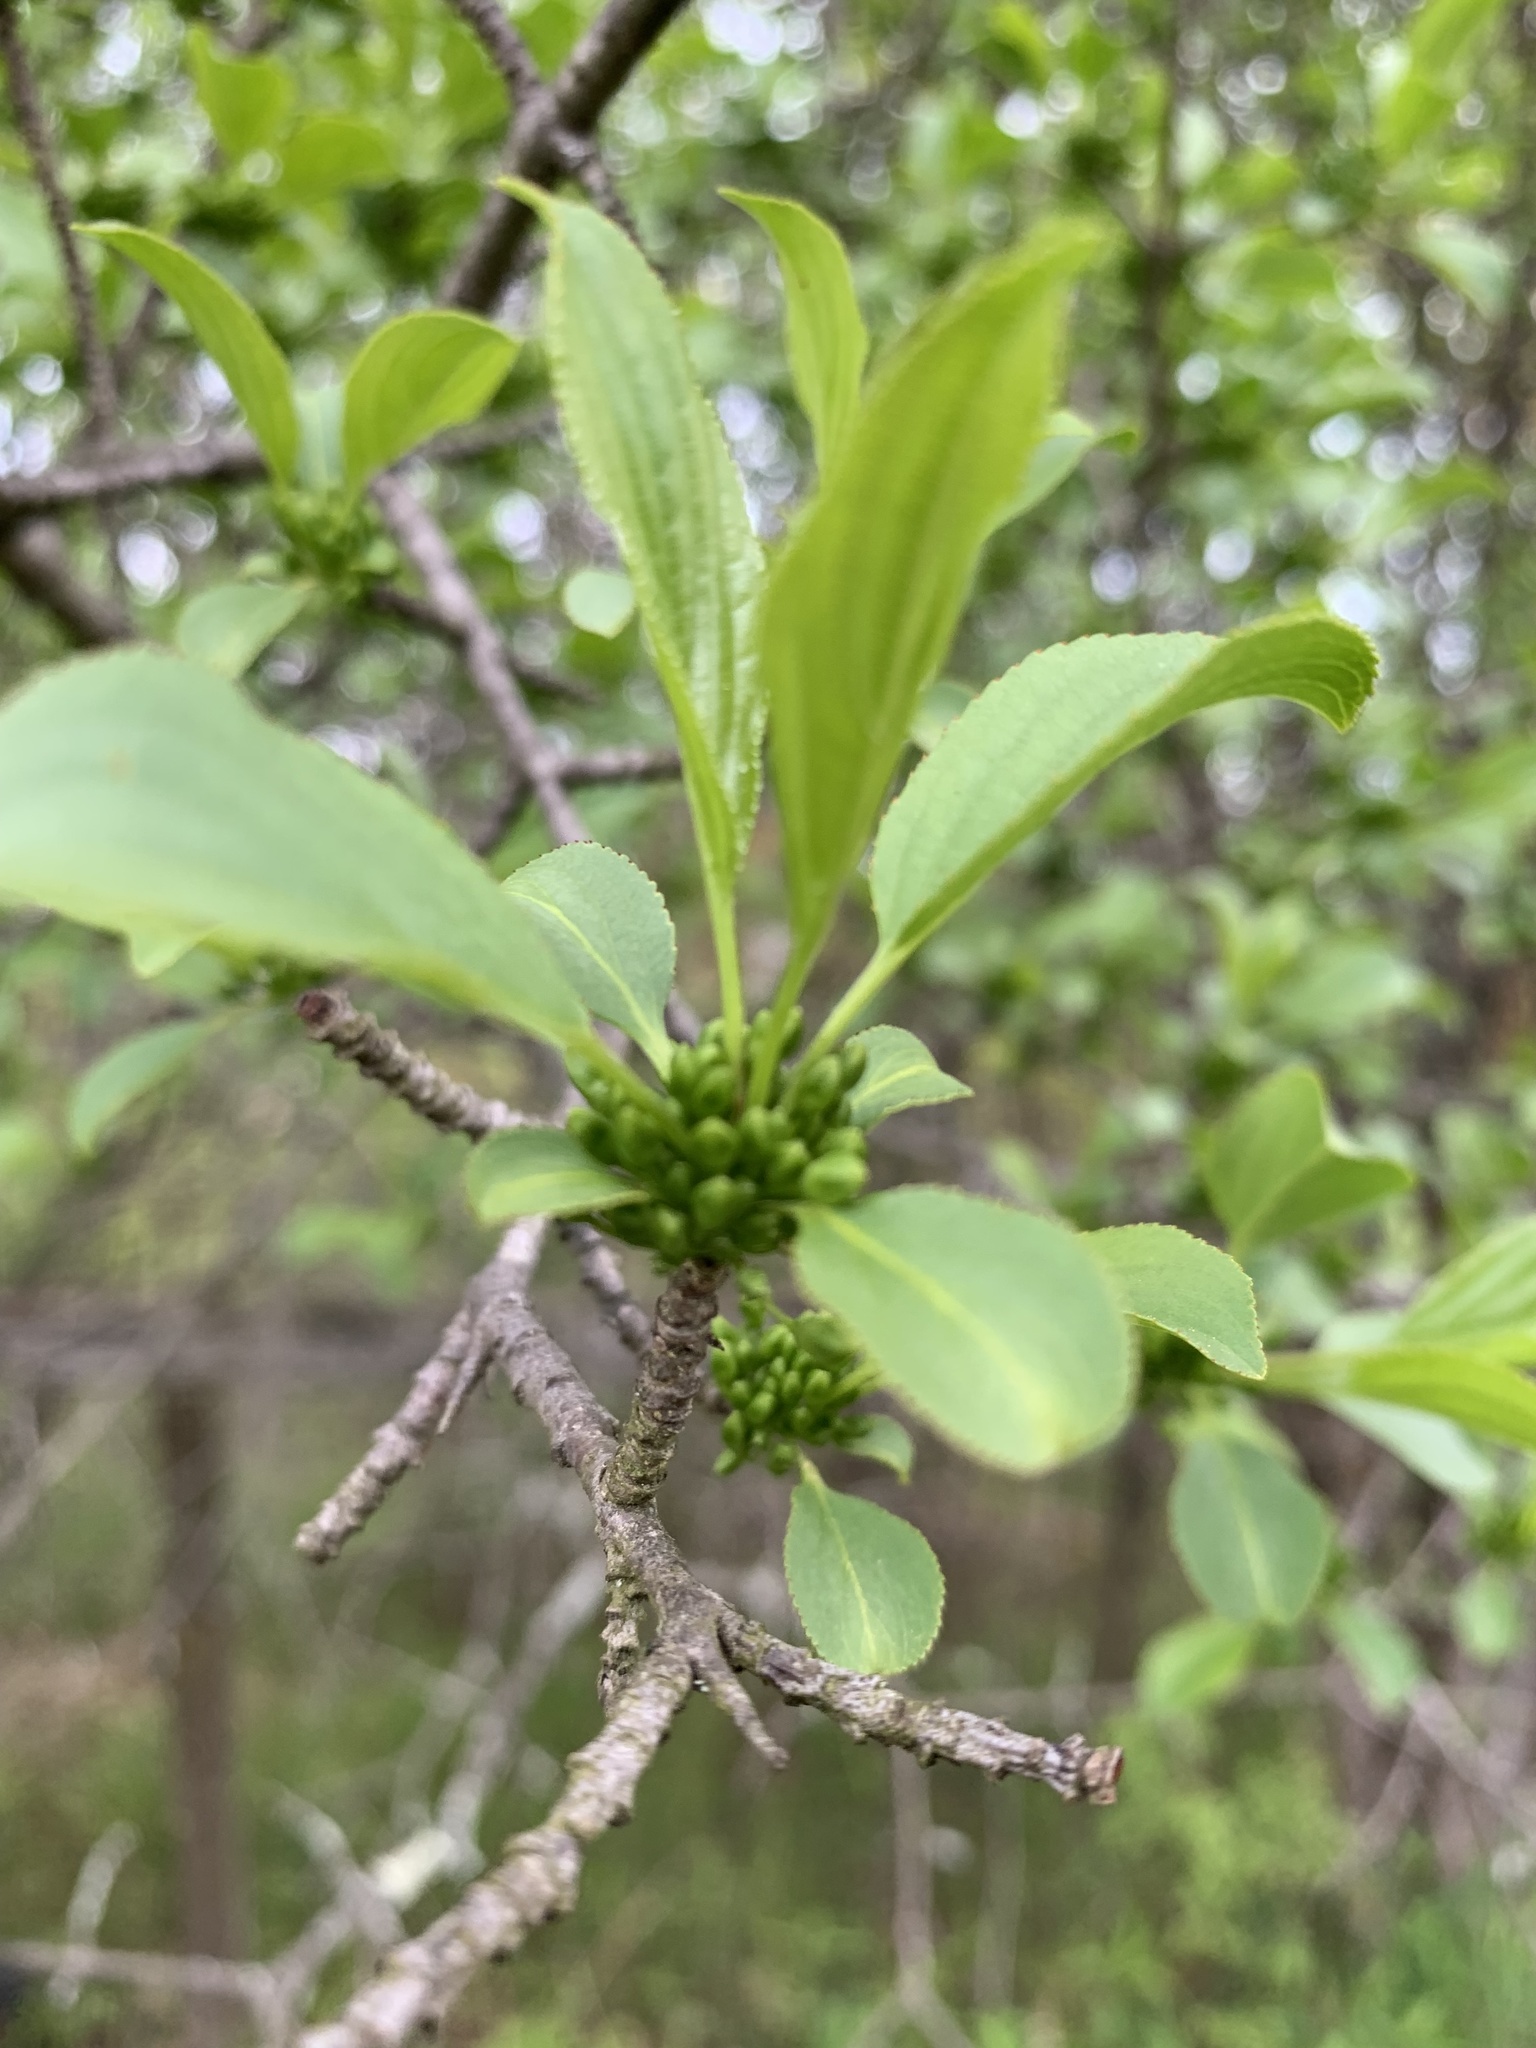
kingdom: Plantae
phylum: Tracheophyta
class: Magnoliopsida
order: Rosales
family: Rhamnaceae
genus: Rhamnus
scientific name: Rhamnus cathartica
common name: Common buckthorn
